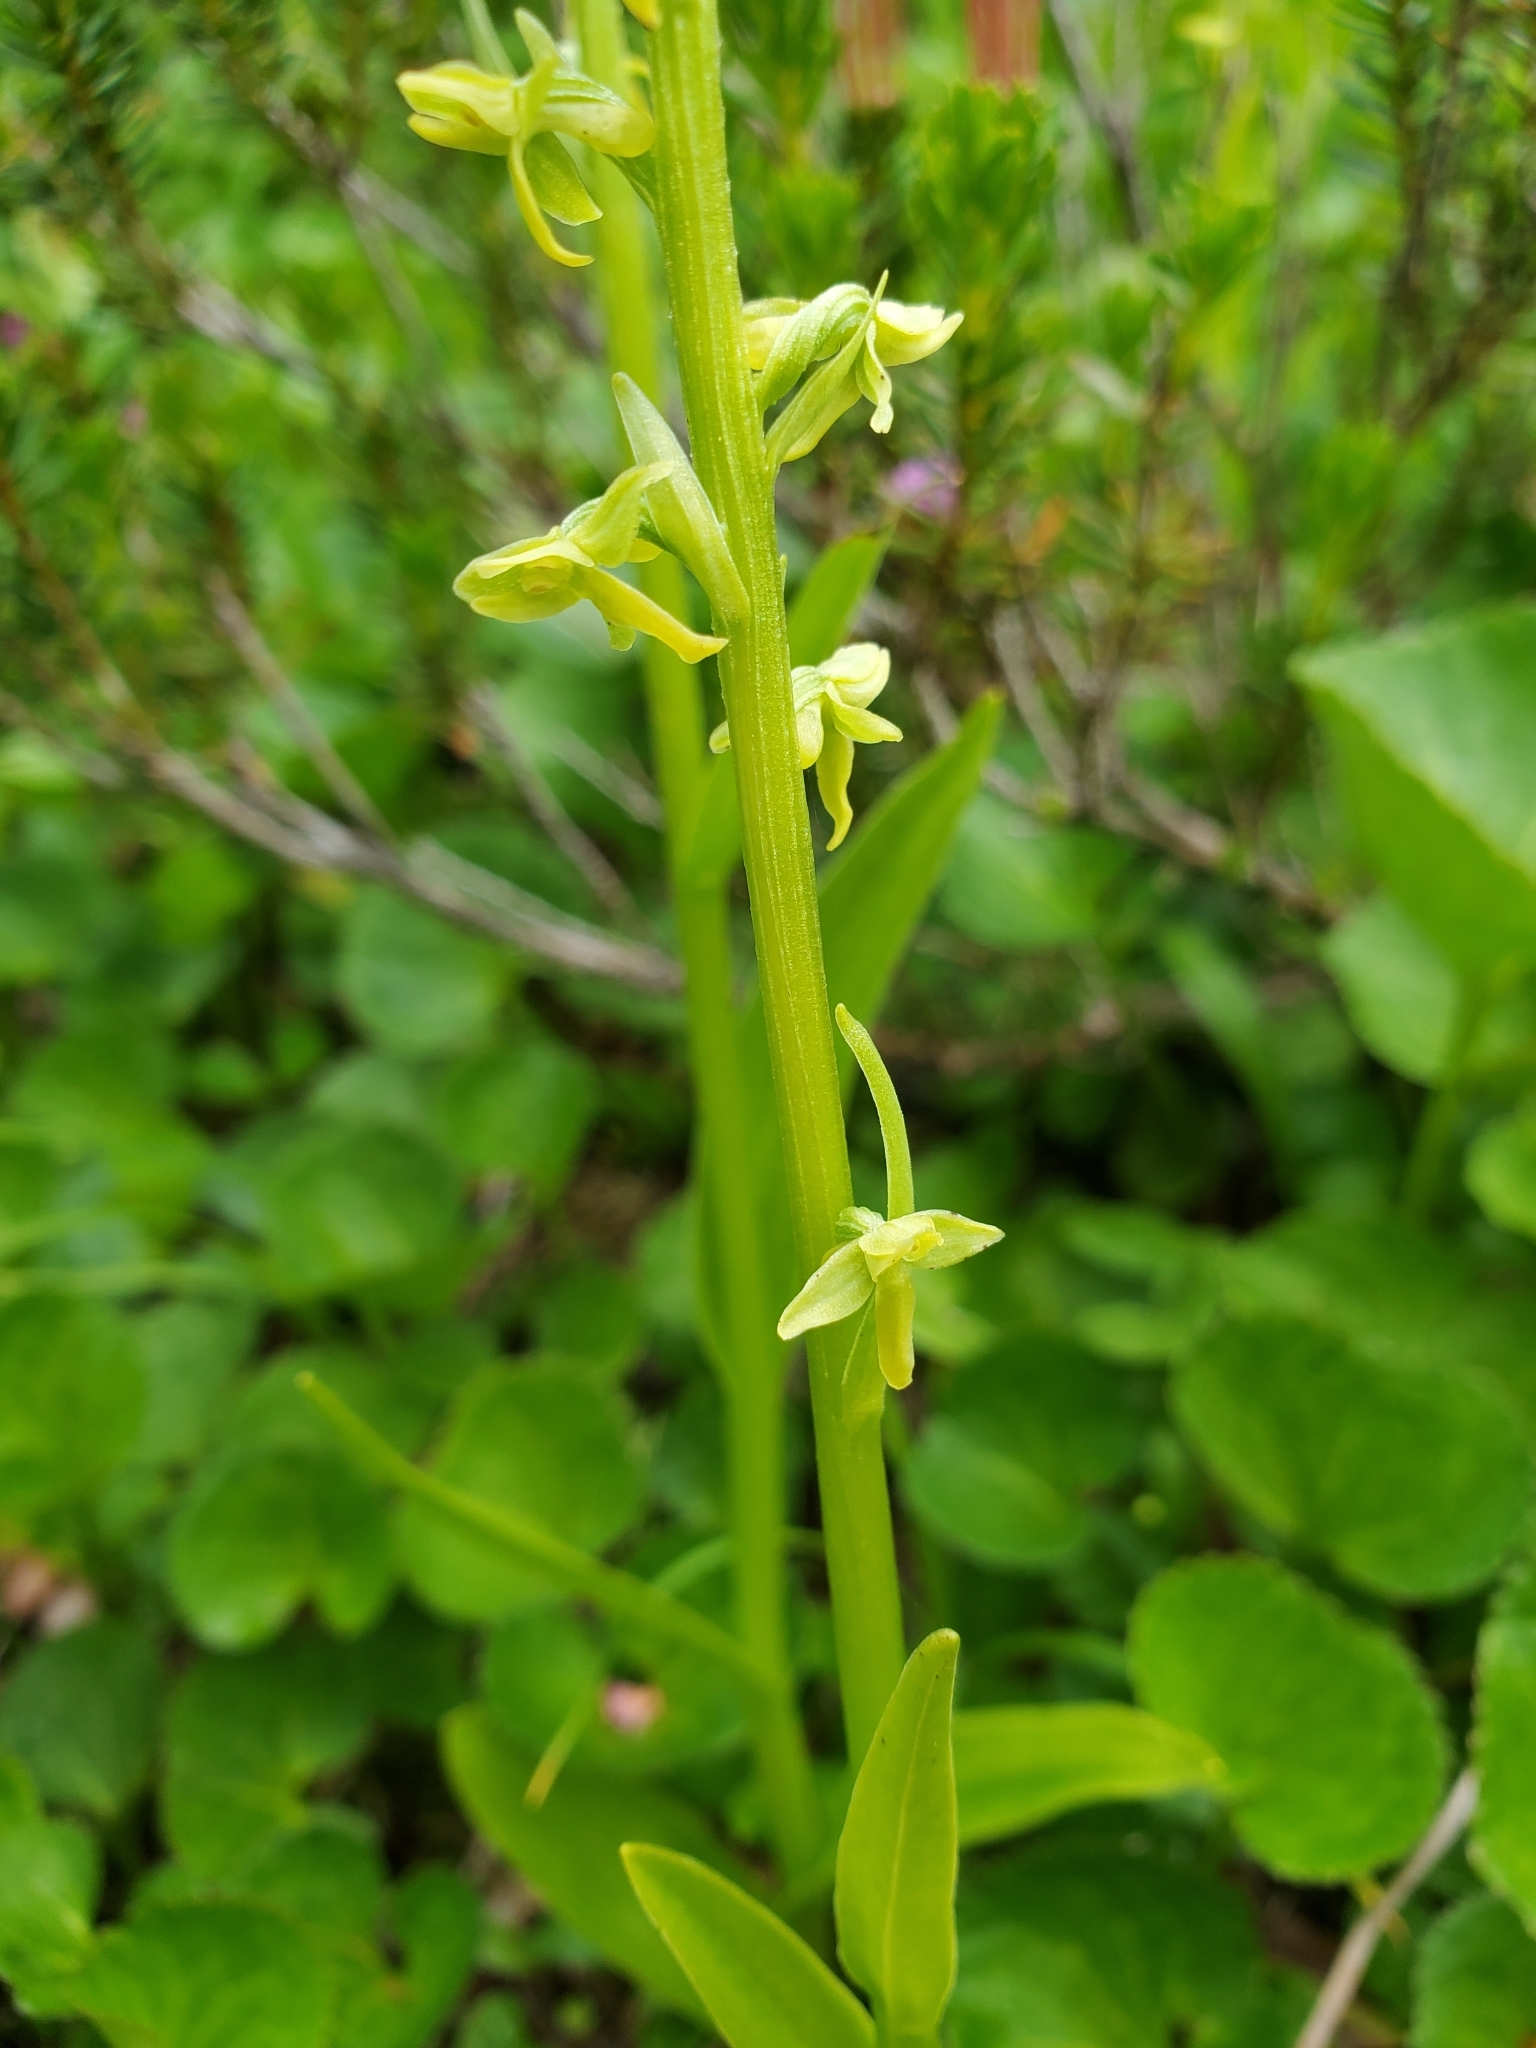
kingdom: Plantae
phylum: Tracheophyta
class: Liliopsida
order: Asparagales
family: Orchidaceae
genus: Platanthera
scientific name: Platanthera stricta
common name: Slender bog orchid
